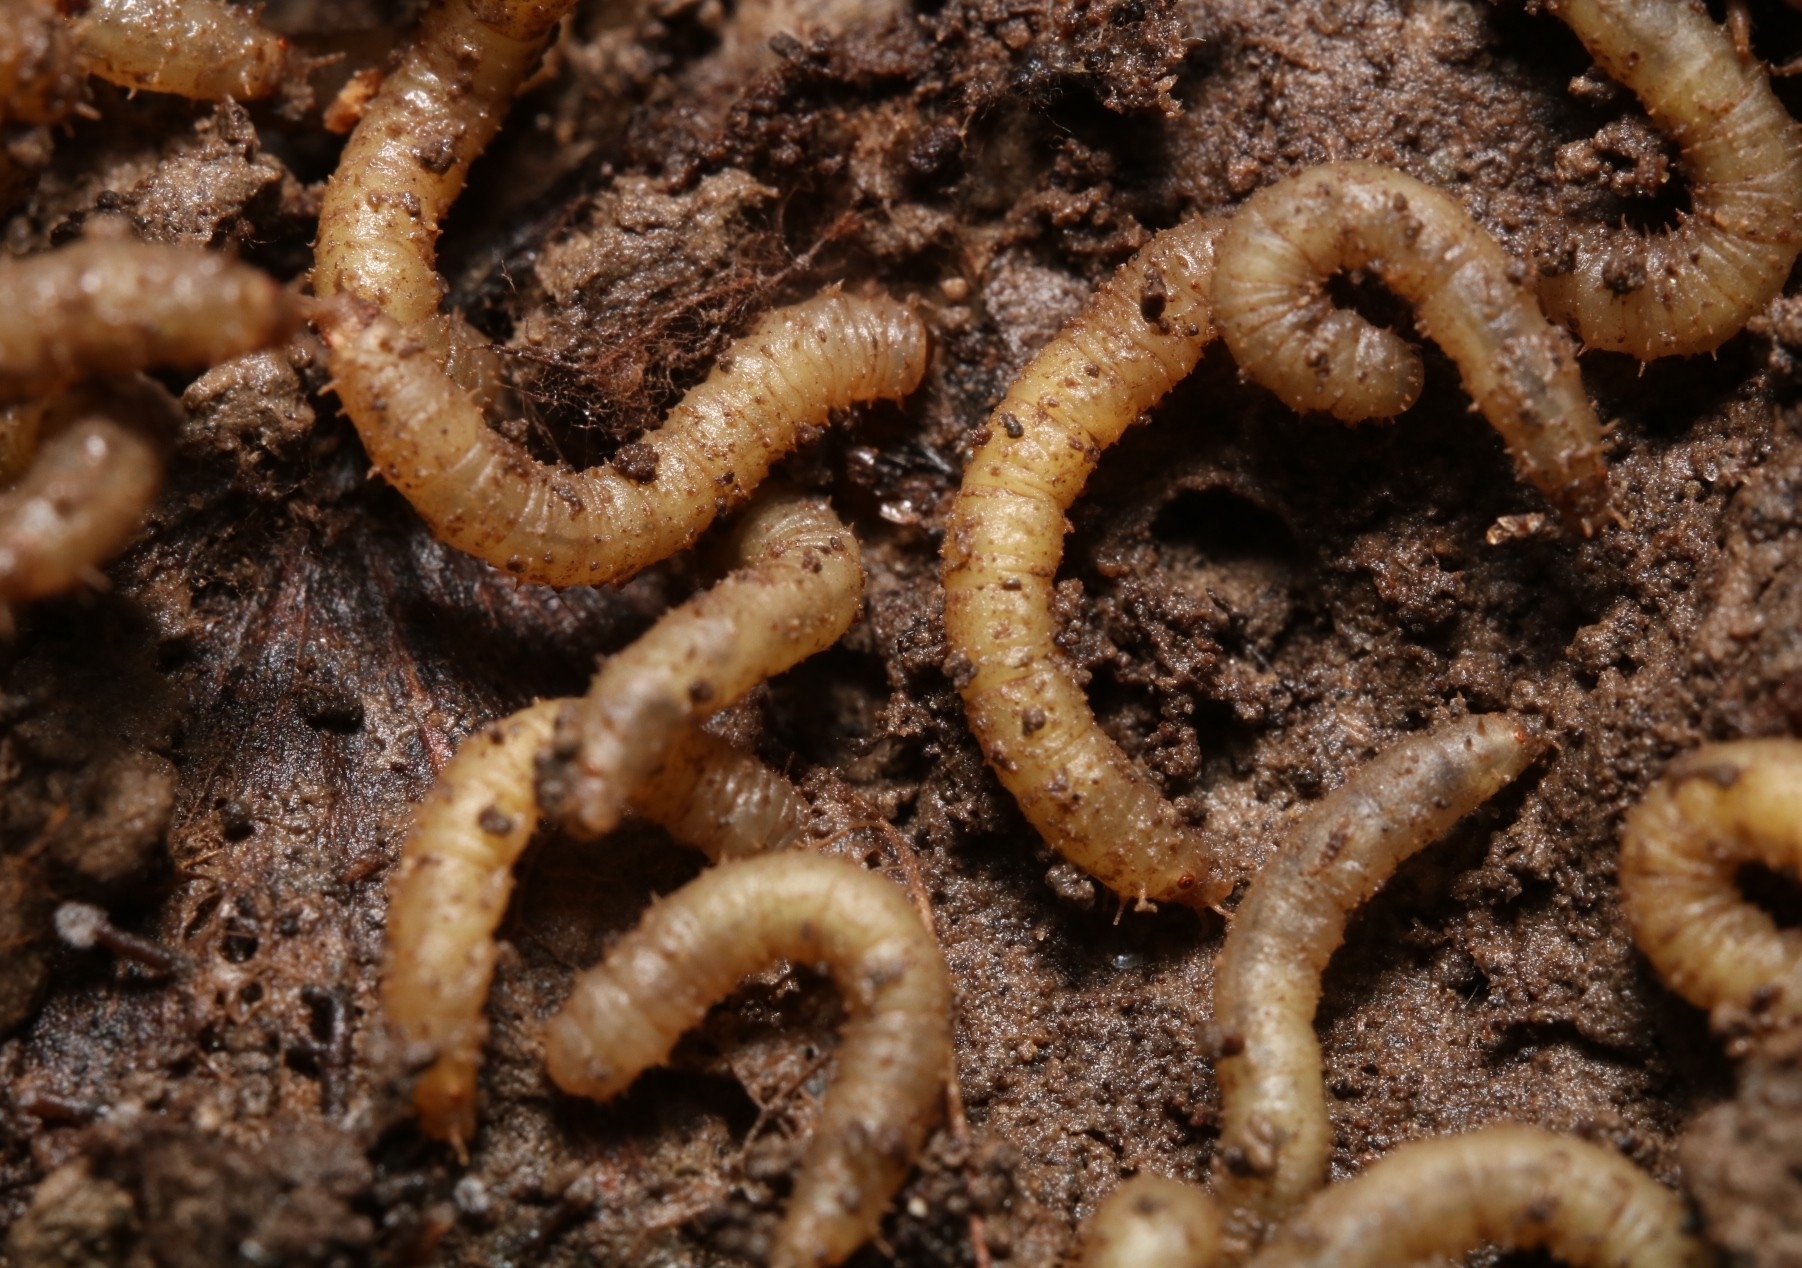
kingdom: Animalia
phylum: Arthropoda
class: Insecta
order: Diptera
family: Bibionidae
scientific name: Bibionidae
